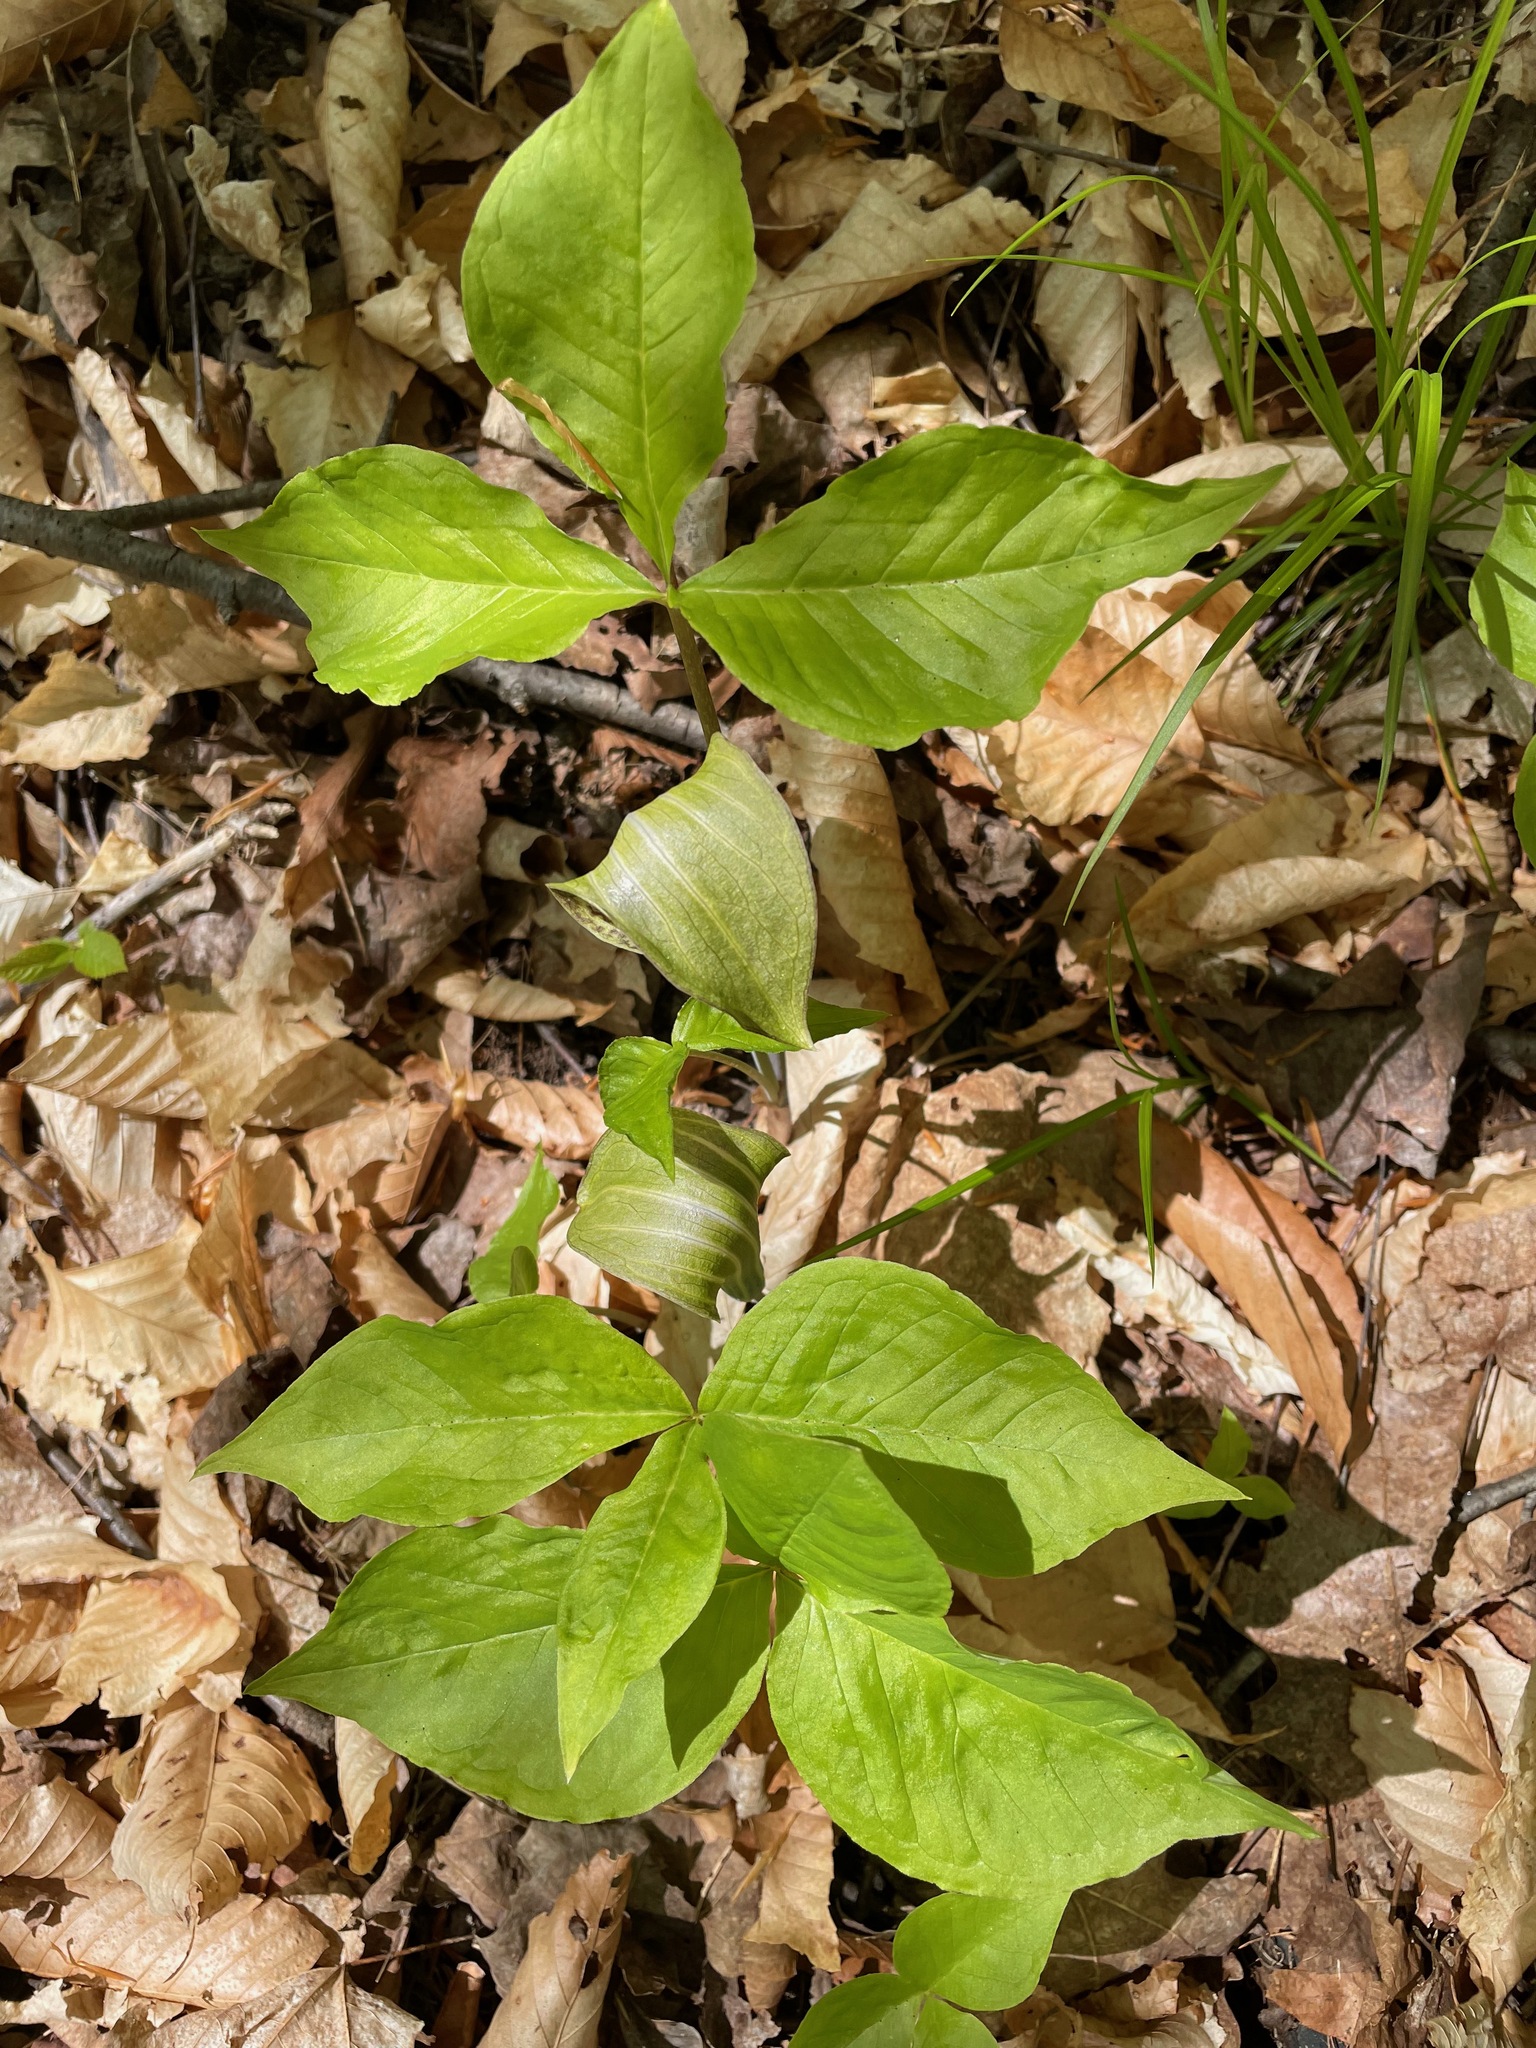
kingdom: Plantae
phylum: Tracheophyta
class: Liliopsida
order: Alismatales
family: Araceae
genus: Arisaema
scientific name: Arisaema triphyllum
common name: Jack-in-the-pulpit
